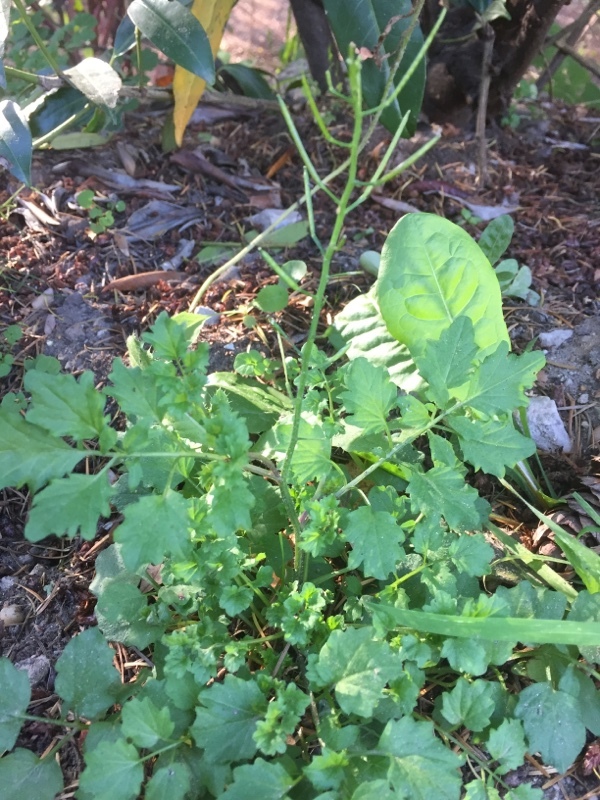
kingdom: Plantae
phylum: Tracheophyta
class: Magnoliopsida
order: Brassicales
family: Brassicaceae
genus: Cardamine
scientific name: Cardamine flexuosa
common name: Woodland bittercress
